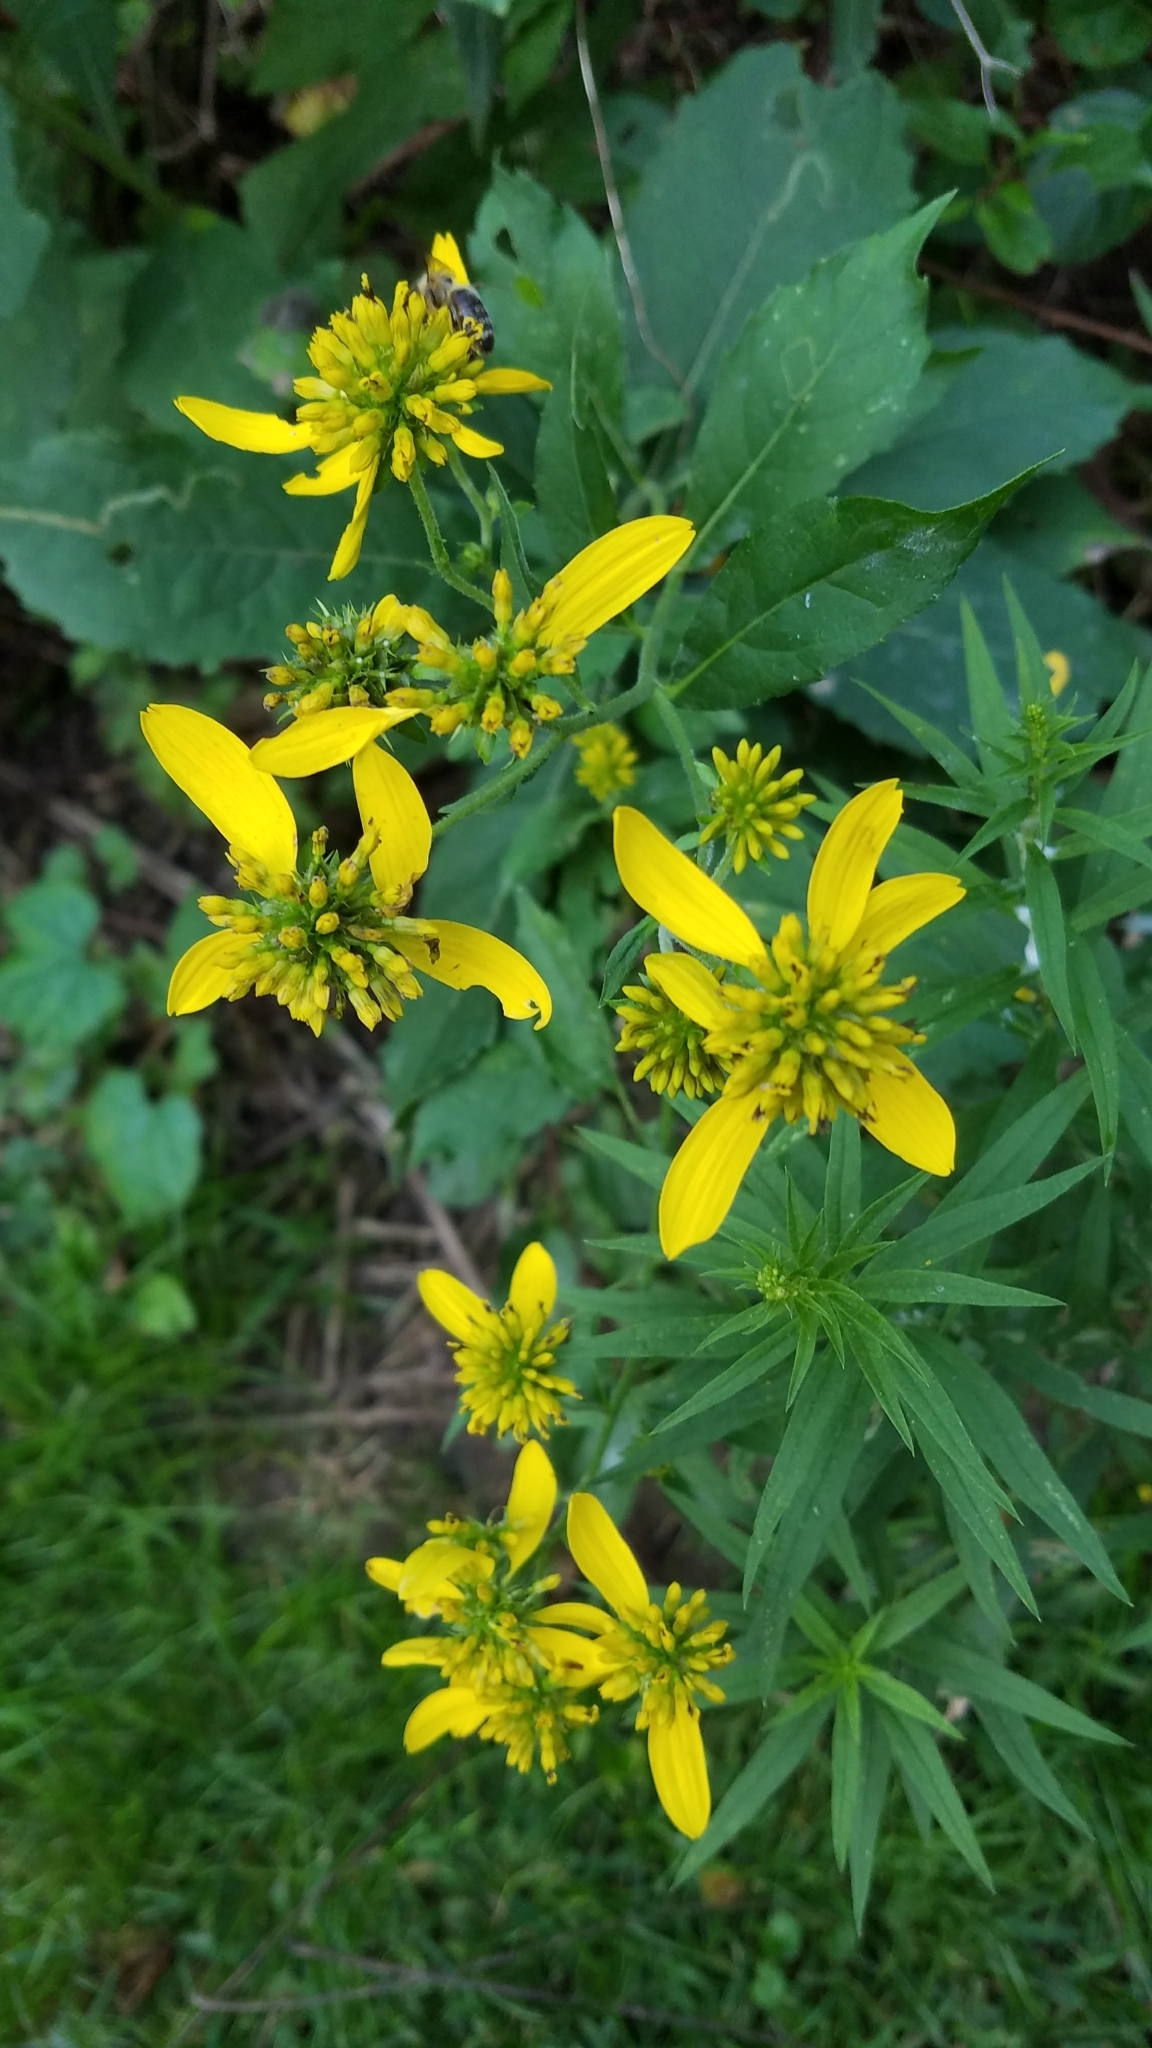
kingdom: Plantae
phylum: Tracheophyta
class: Magnoliopsida
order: Asterales
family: Asteraceae
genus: Verbesina
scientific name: Verbesina alternifolia
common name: Wingstem
